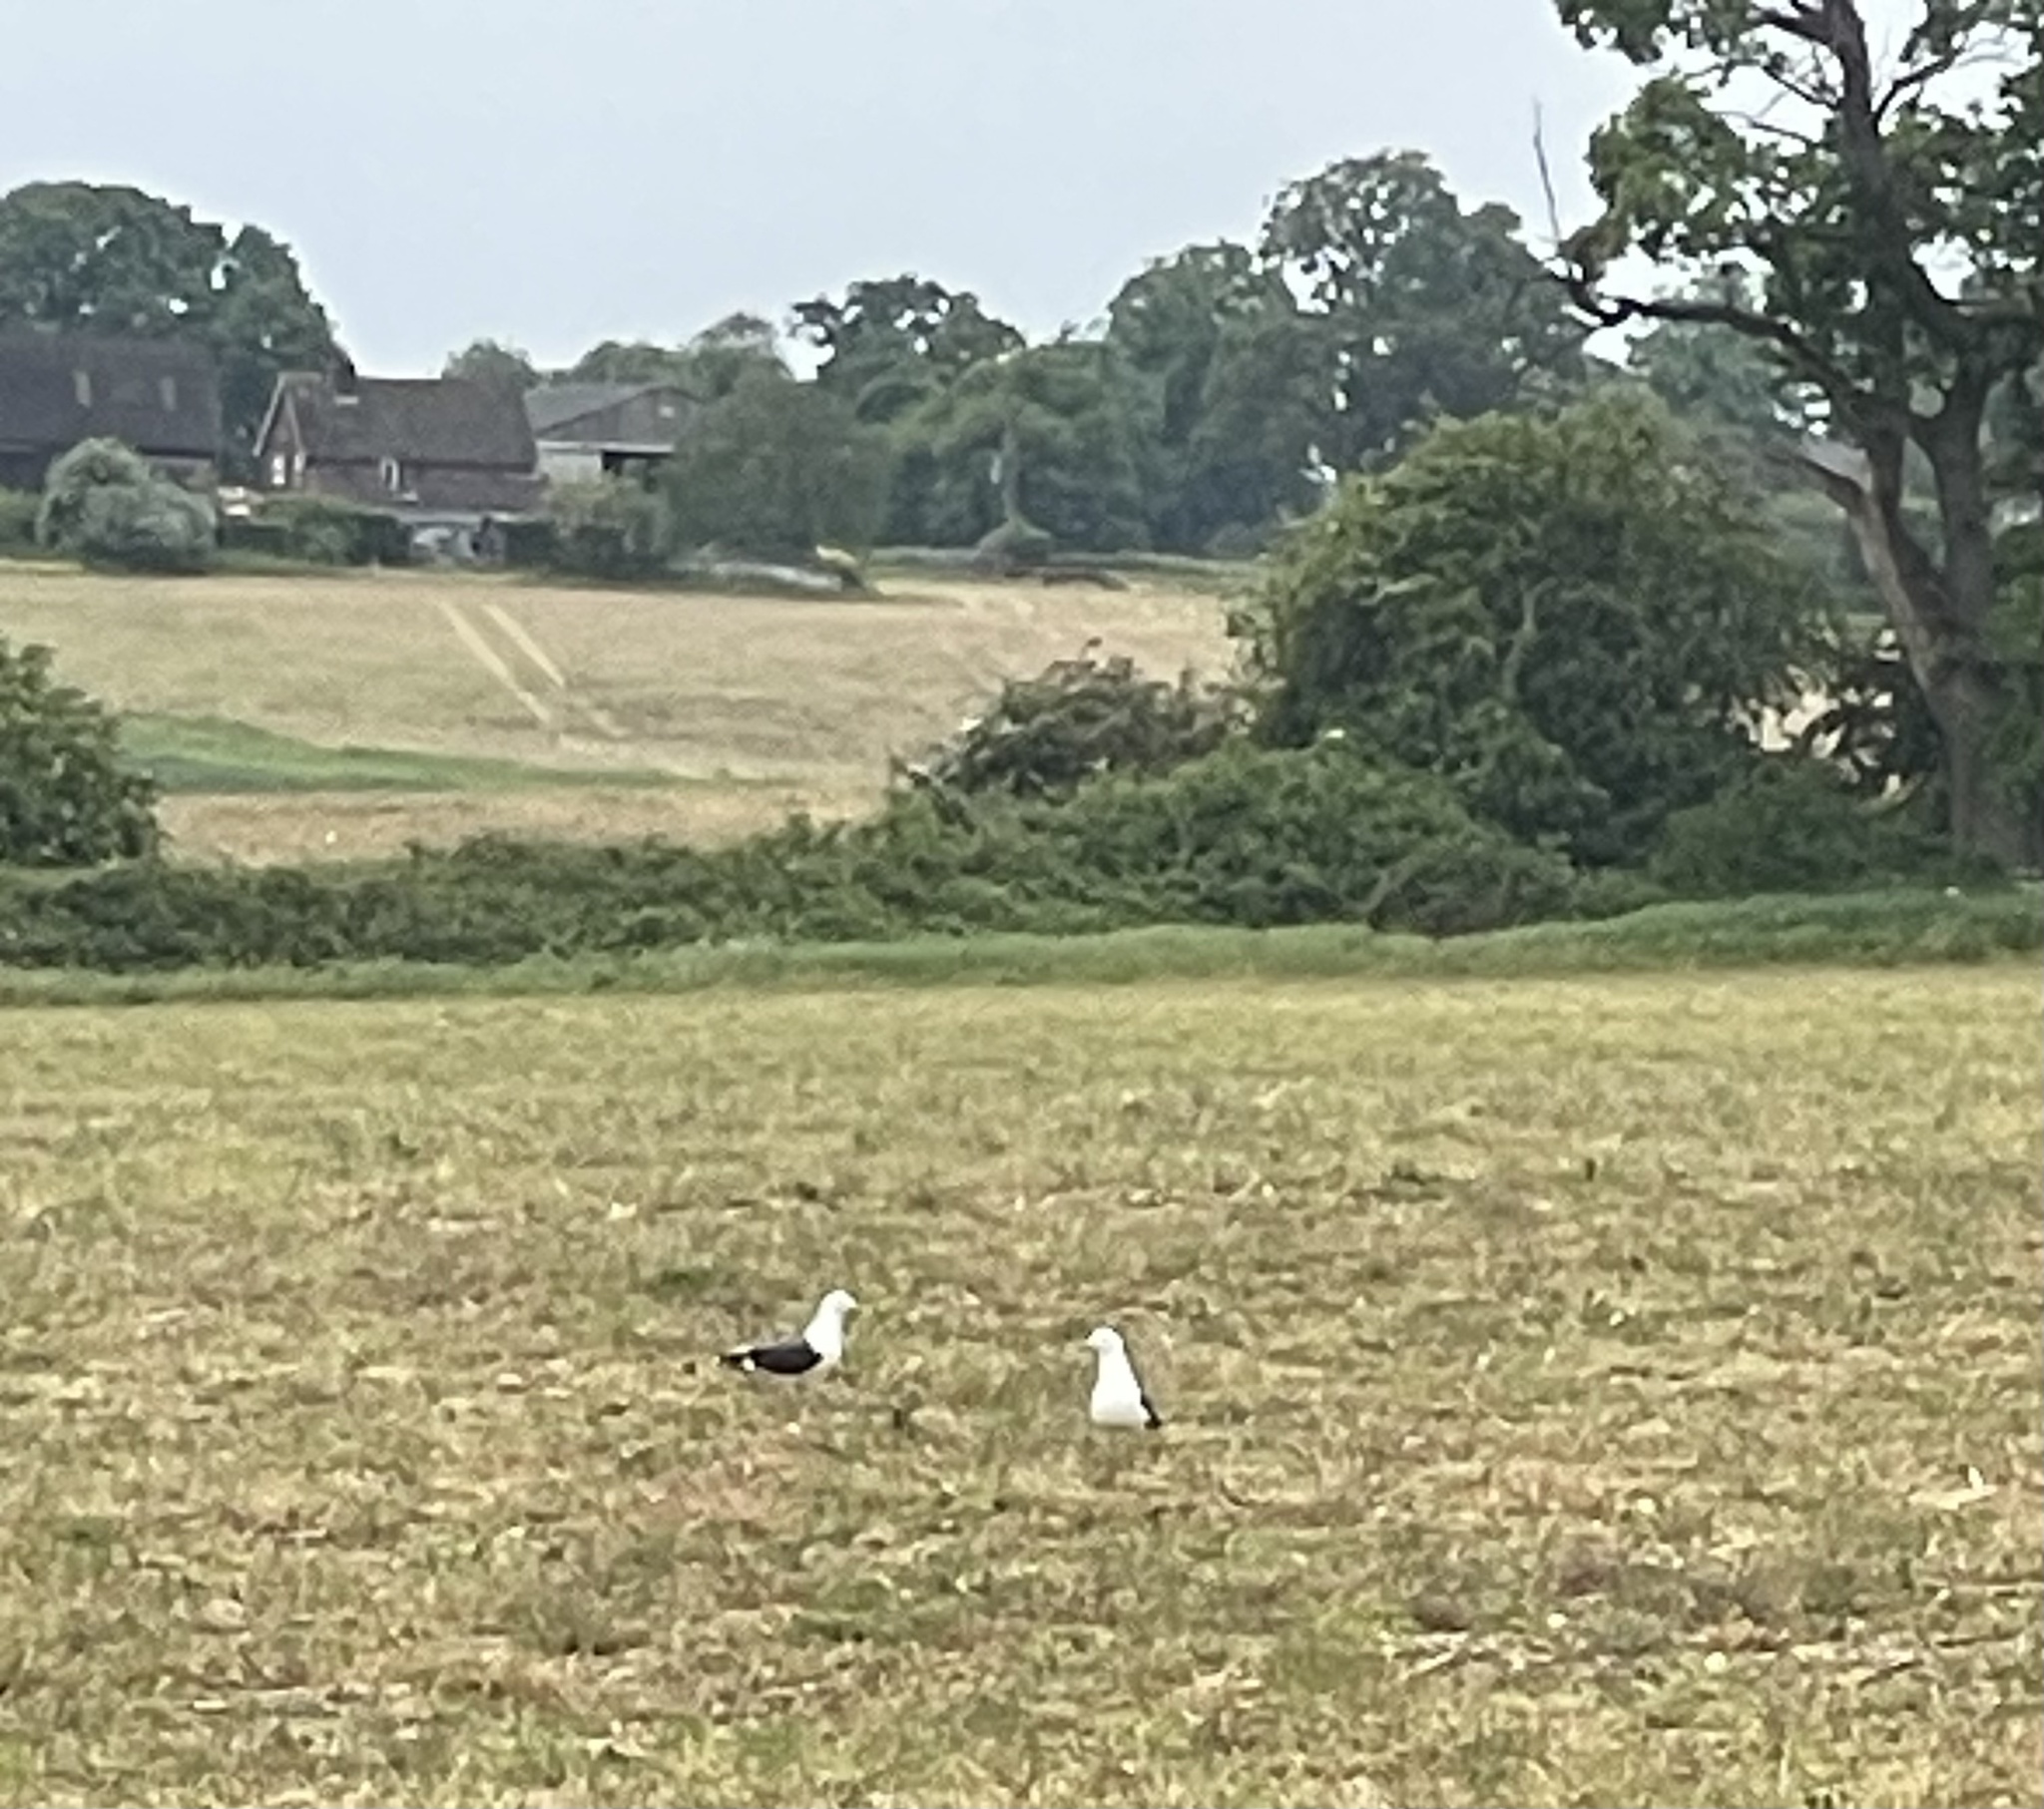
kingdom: Animalia
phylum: Chordata
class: Aves
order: Charadriiformes
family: Laridae
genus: Larus
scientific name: Larus fuscus
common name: Lesser black-backed gull
